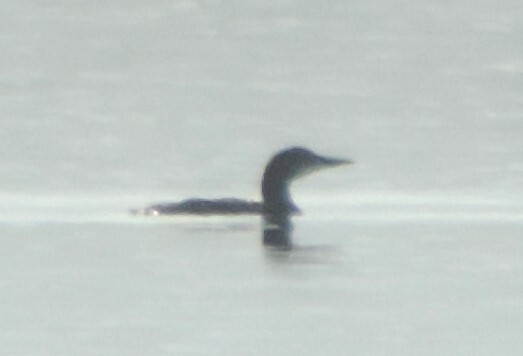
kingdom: Animalia
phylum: Chordata
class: Aves
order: Gaviiformes
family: Gaviidae
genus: Gavia
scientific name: Gavia immer
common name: Common loon
